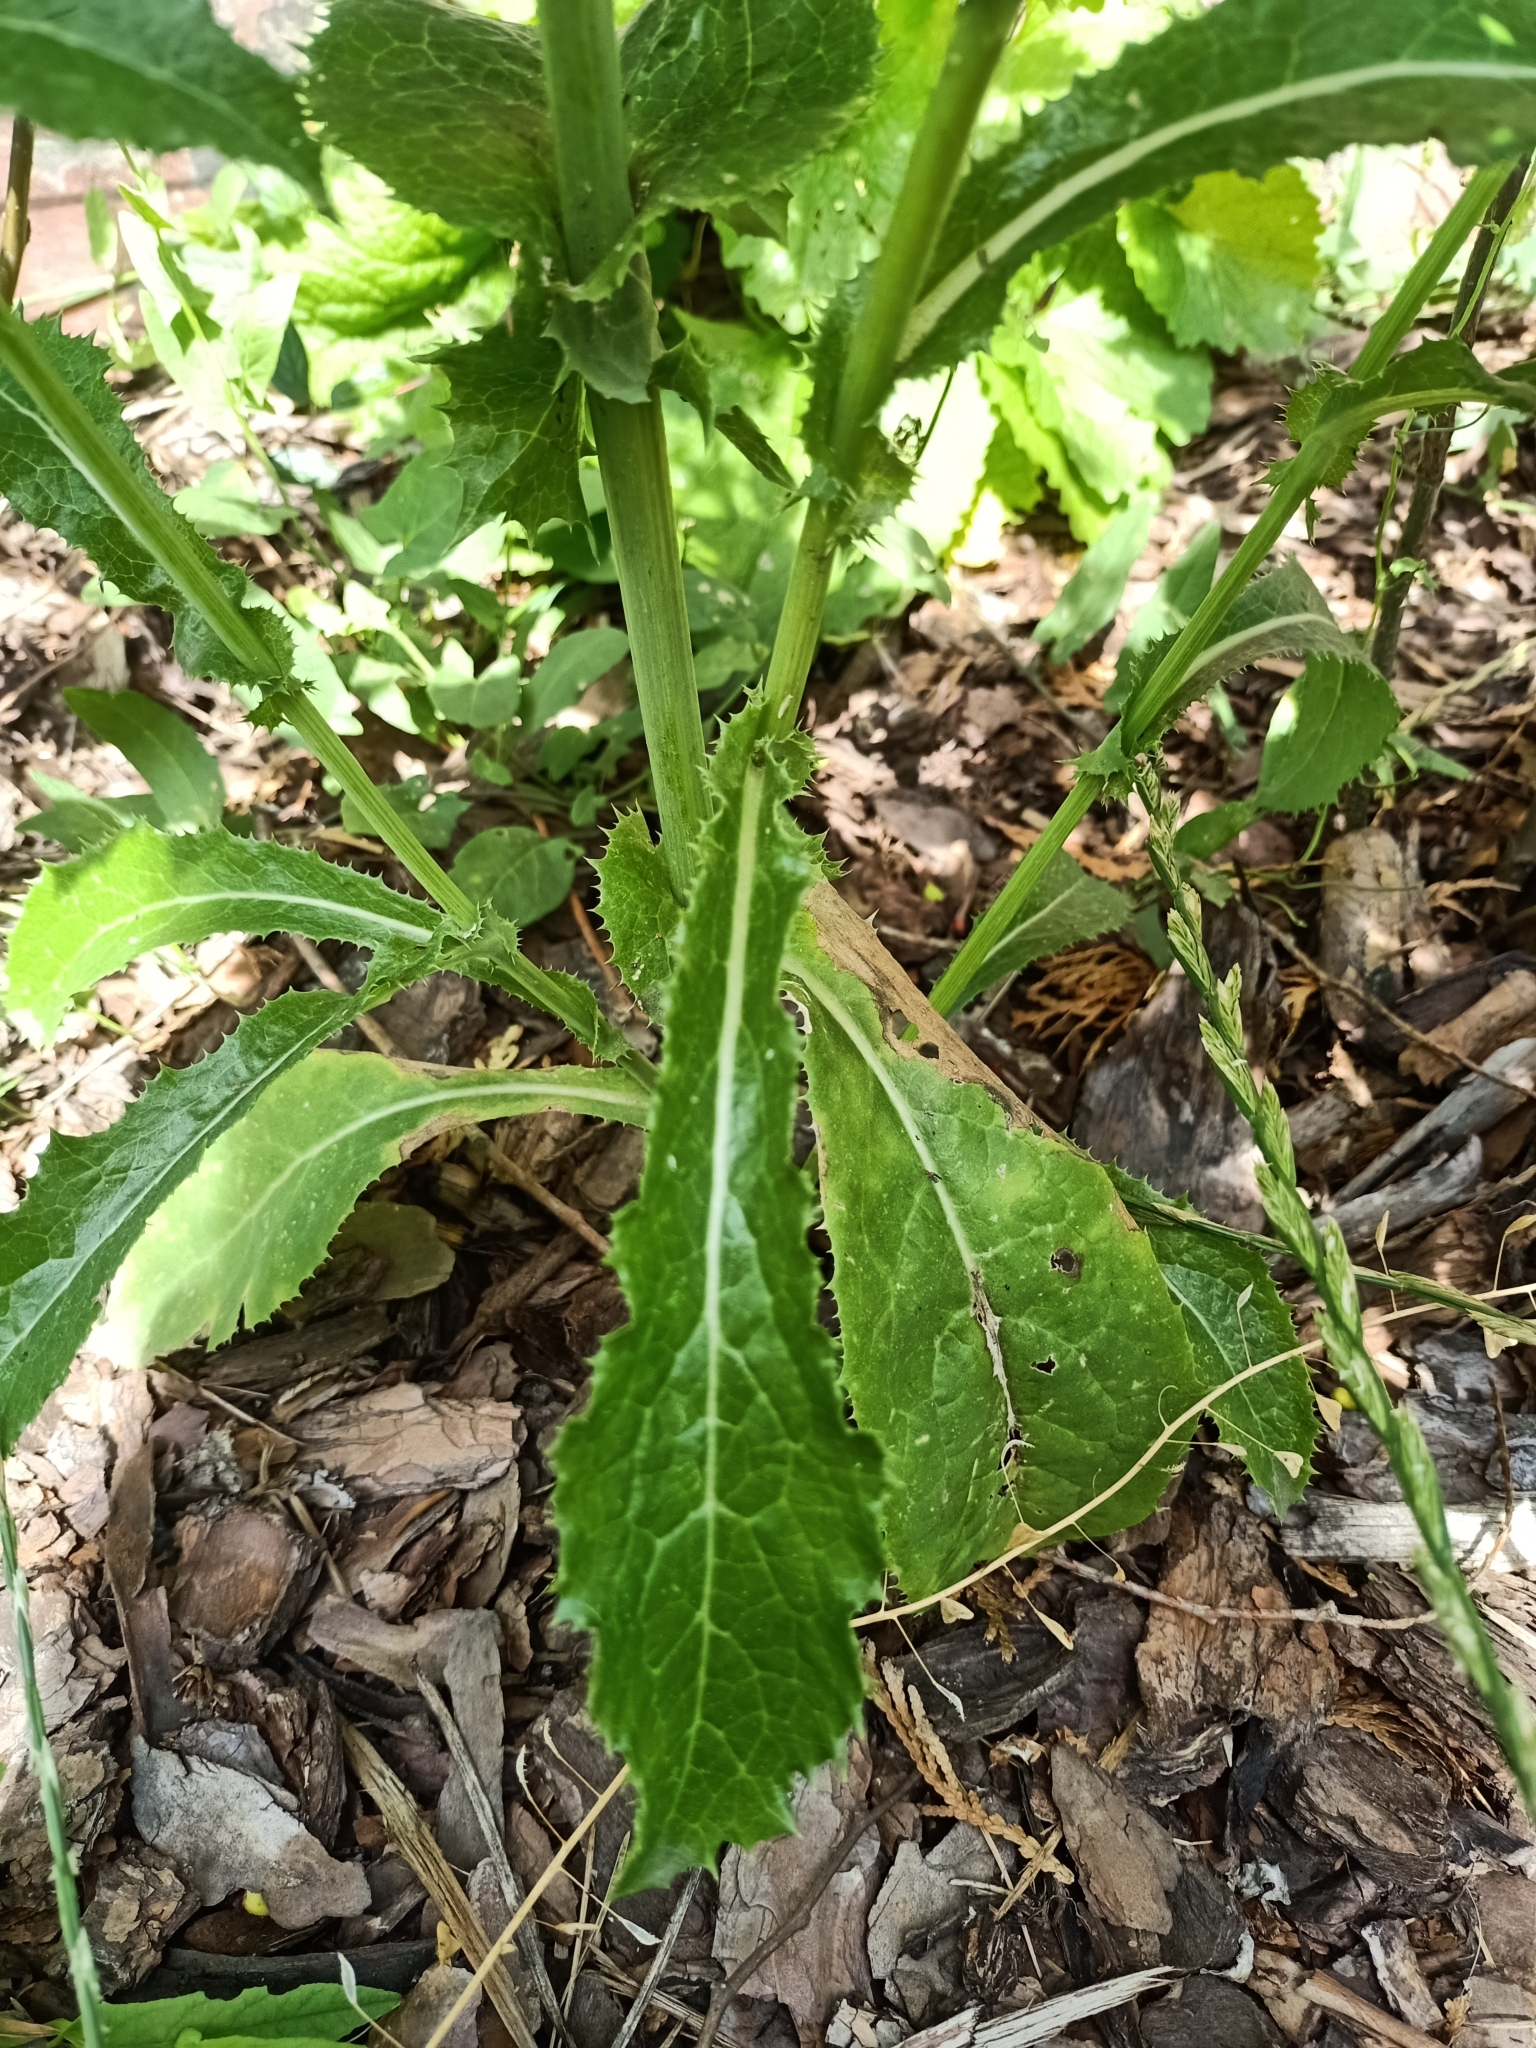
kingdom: Plantae
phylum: Tracheophyta
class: Magnoliopsida
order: Asterales
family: Asteraceae
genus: Sonchus
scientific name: Sonchus asper
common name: Prickly sow-thistle
